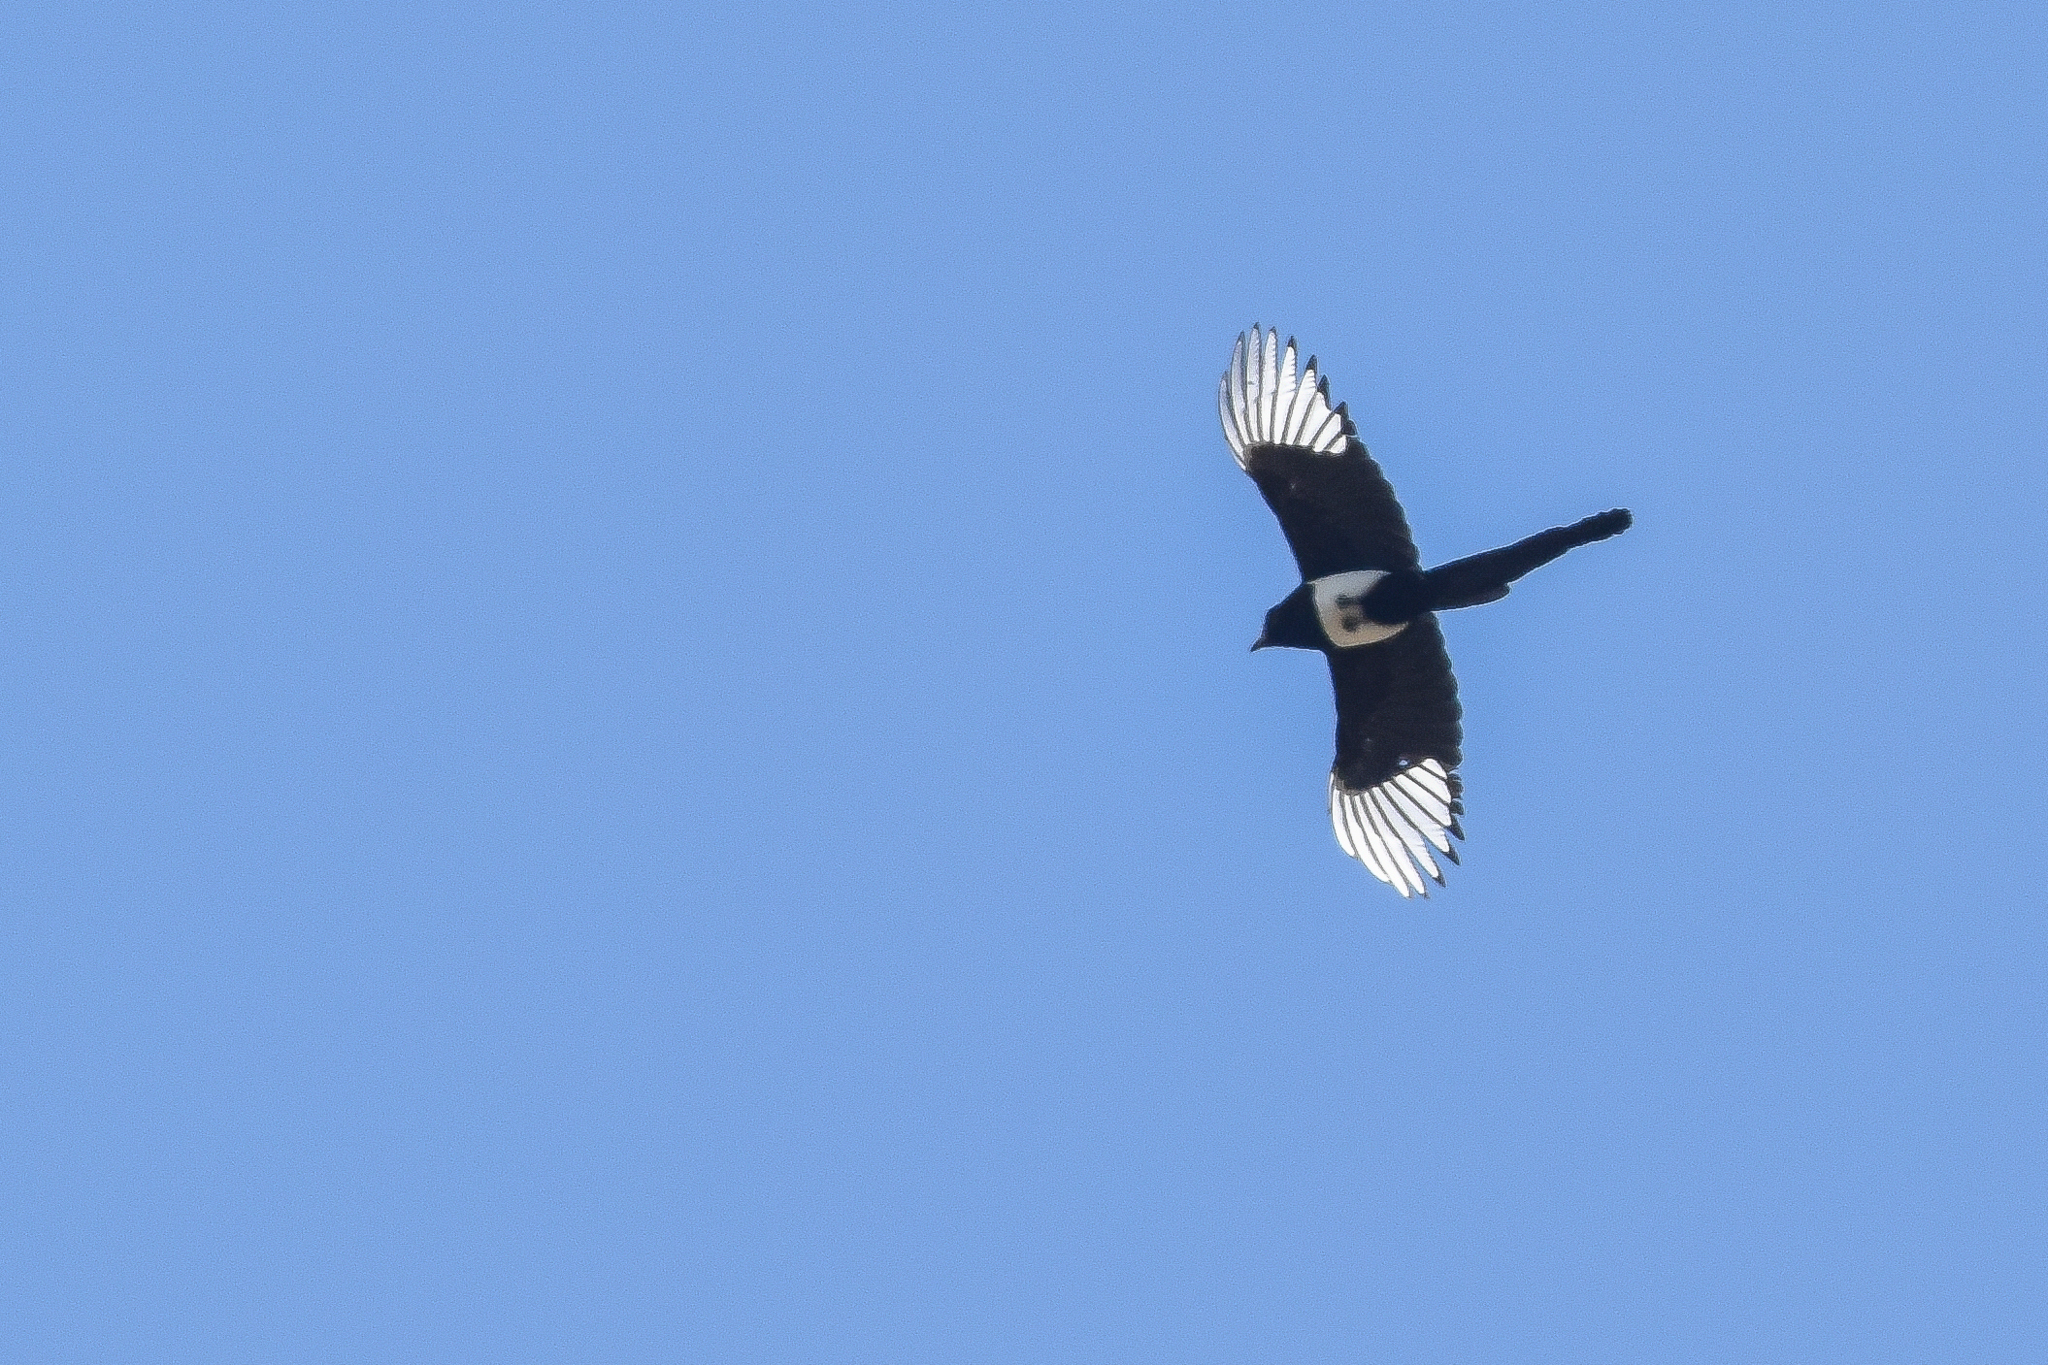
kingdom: Animalia
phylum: Chordata
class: Aves
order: Passeriformes
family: Corvidae
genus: Pica
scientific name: Pica hudsonia
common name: Black-billed magpie
